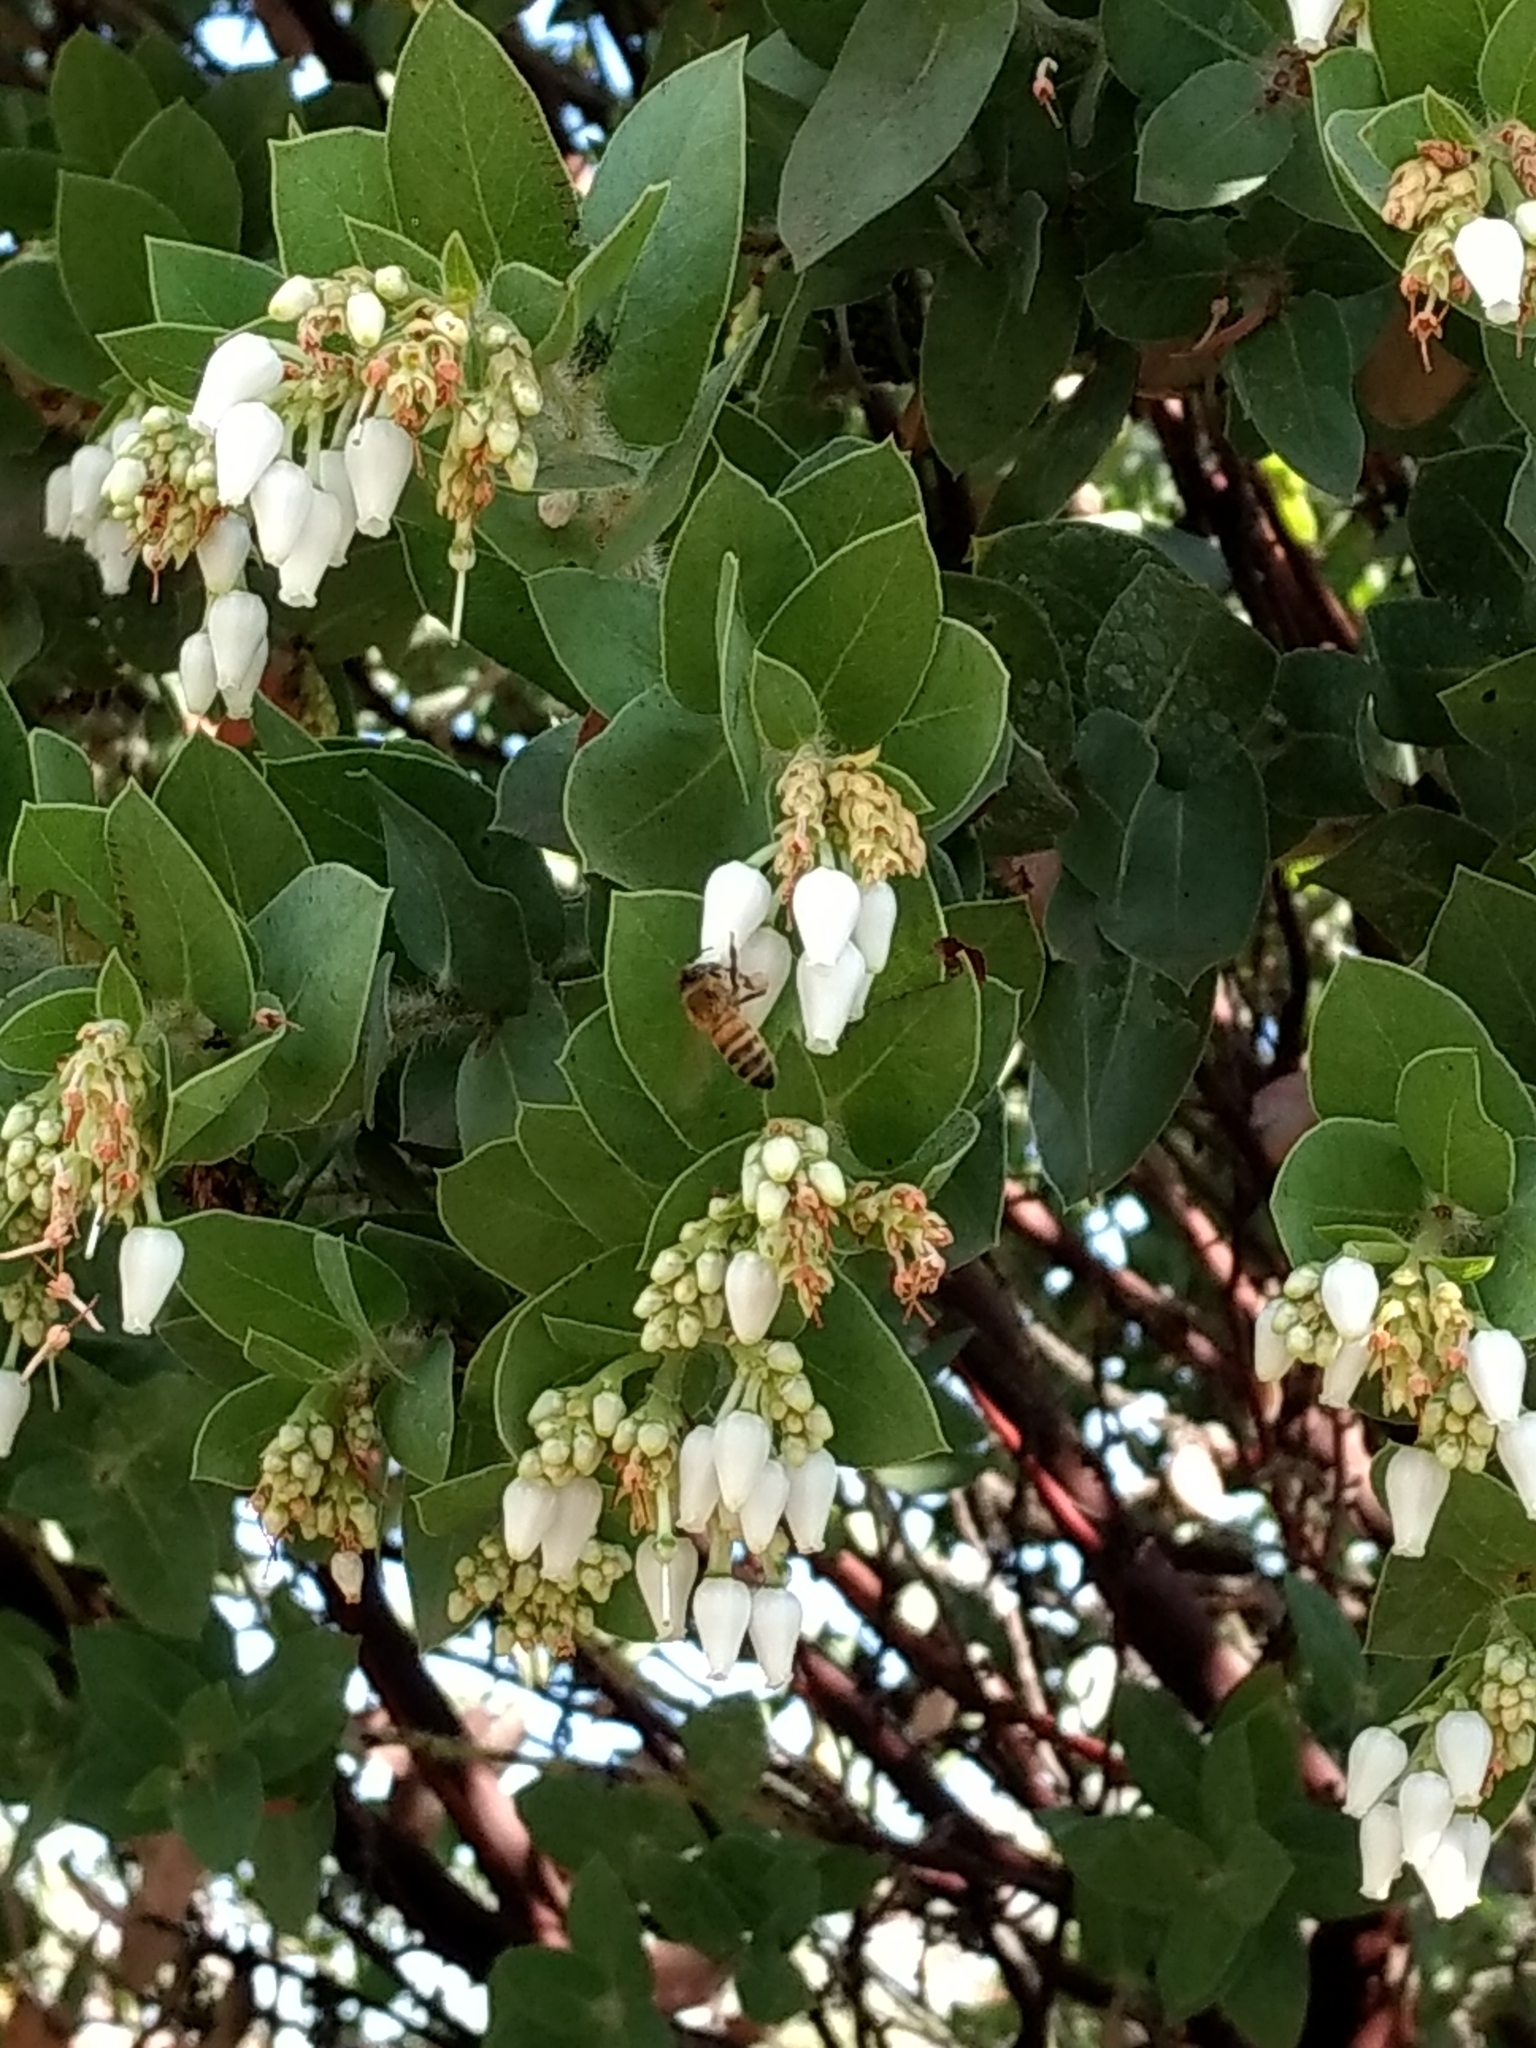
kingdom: Animalia
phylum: Arthropoda
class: Insecta
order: Hymenoptera
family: Apidae
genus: Apis
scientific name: Apis mellifera
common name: Honey bee
